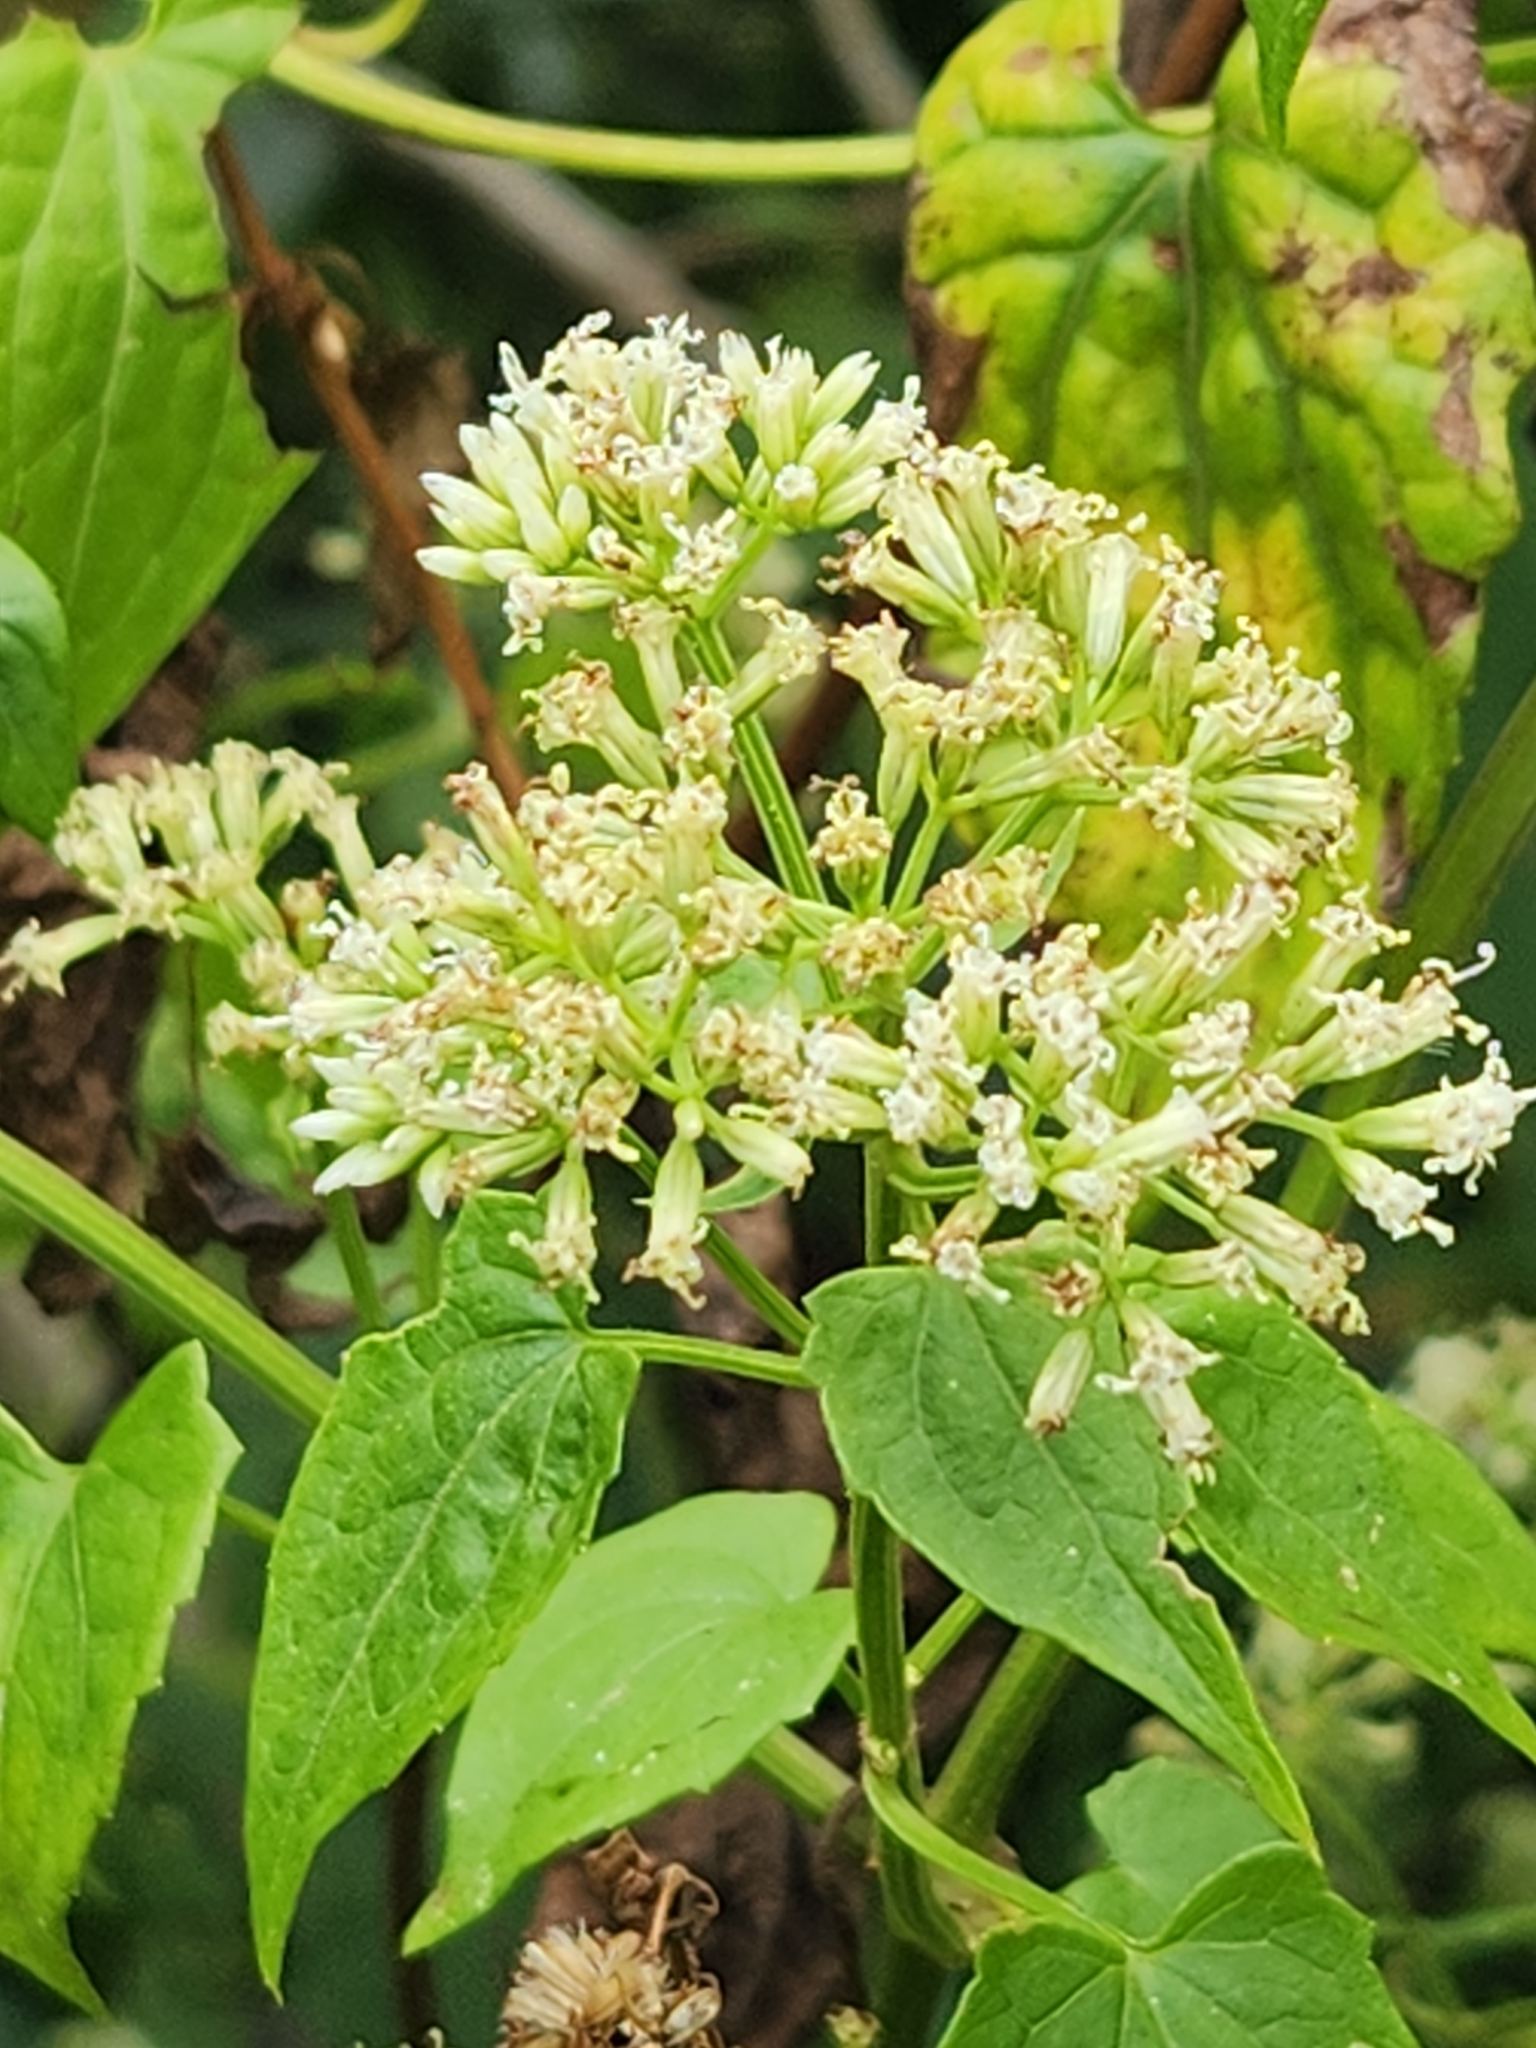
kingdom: Plantae
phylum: Tracheophyta
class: Magnoliopsida
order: Asterales
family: Asteraceae
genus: Mikania
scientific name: Mikania micrantha
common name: Mile-a-minute
